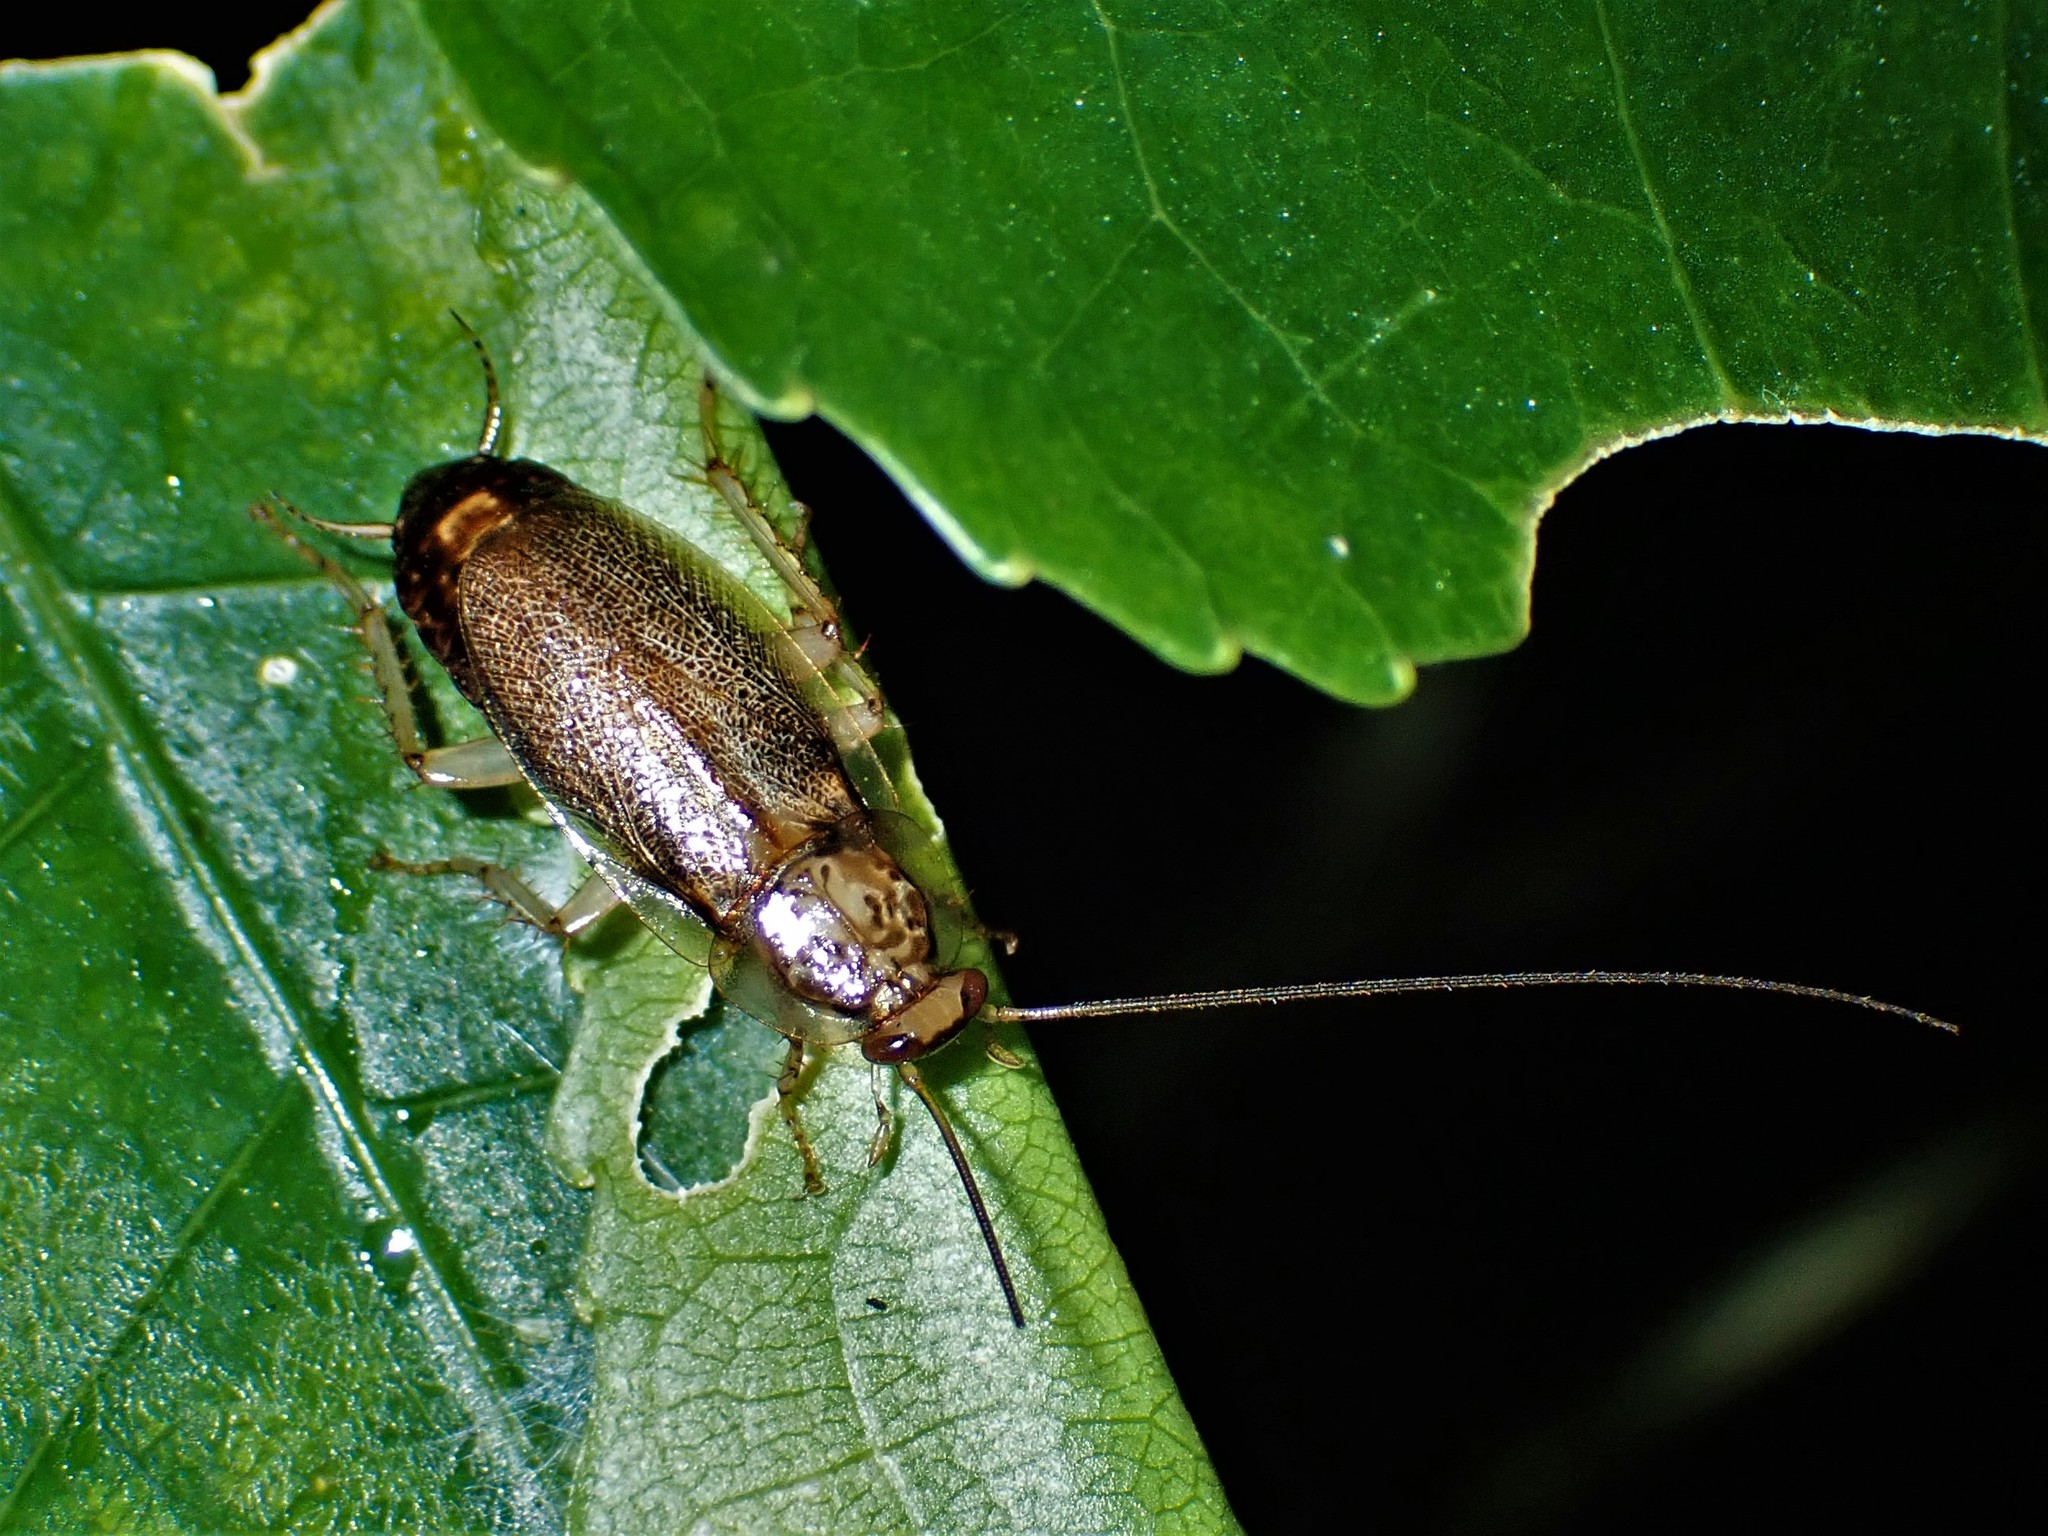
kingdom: Animalia
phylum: Arthropoda
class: Insecta
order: Blattodea
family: Ectobiidae
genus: Parellipsidion
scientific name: Parellipsidion latipenne
